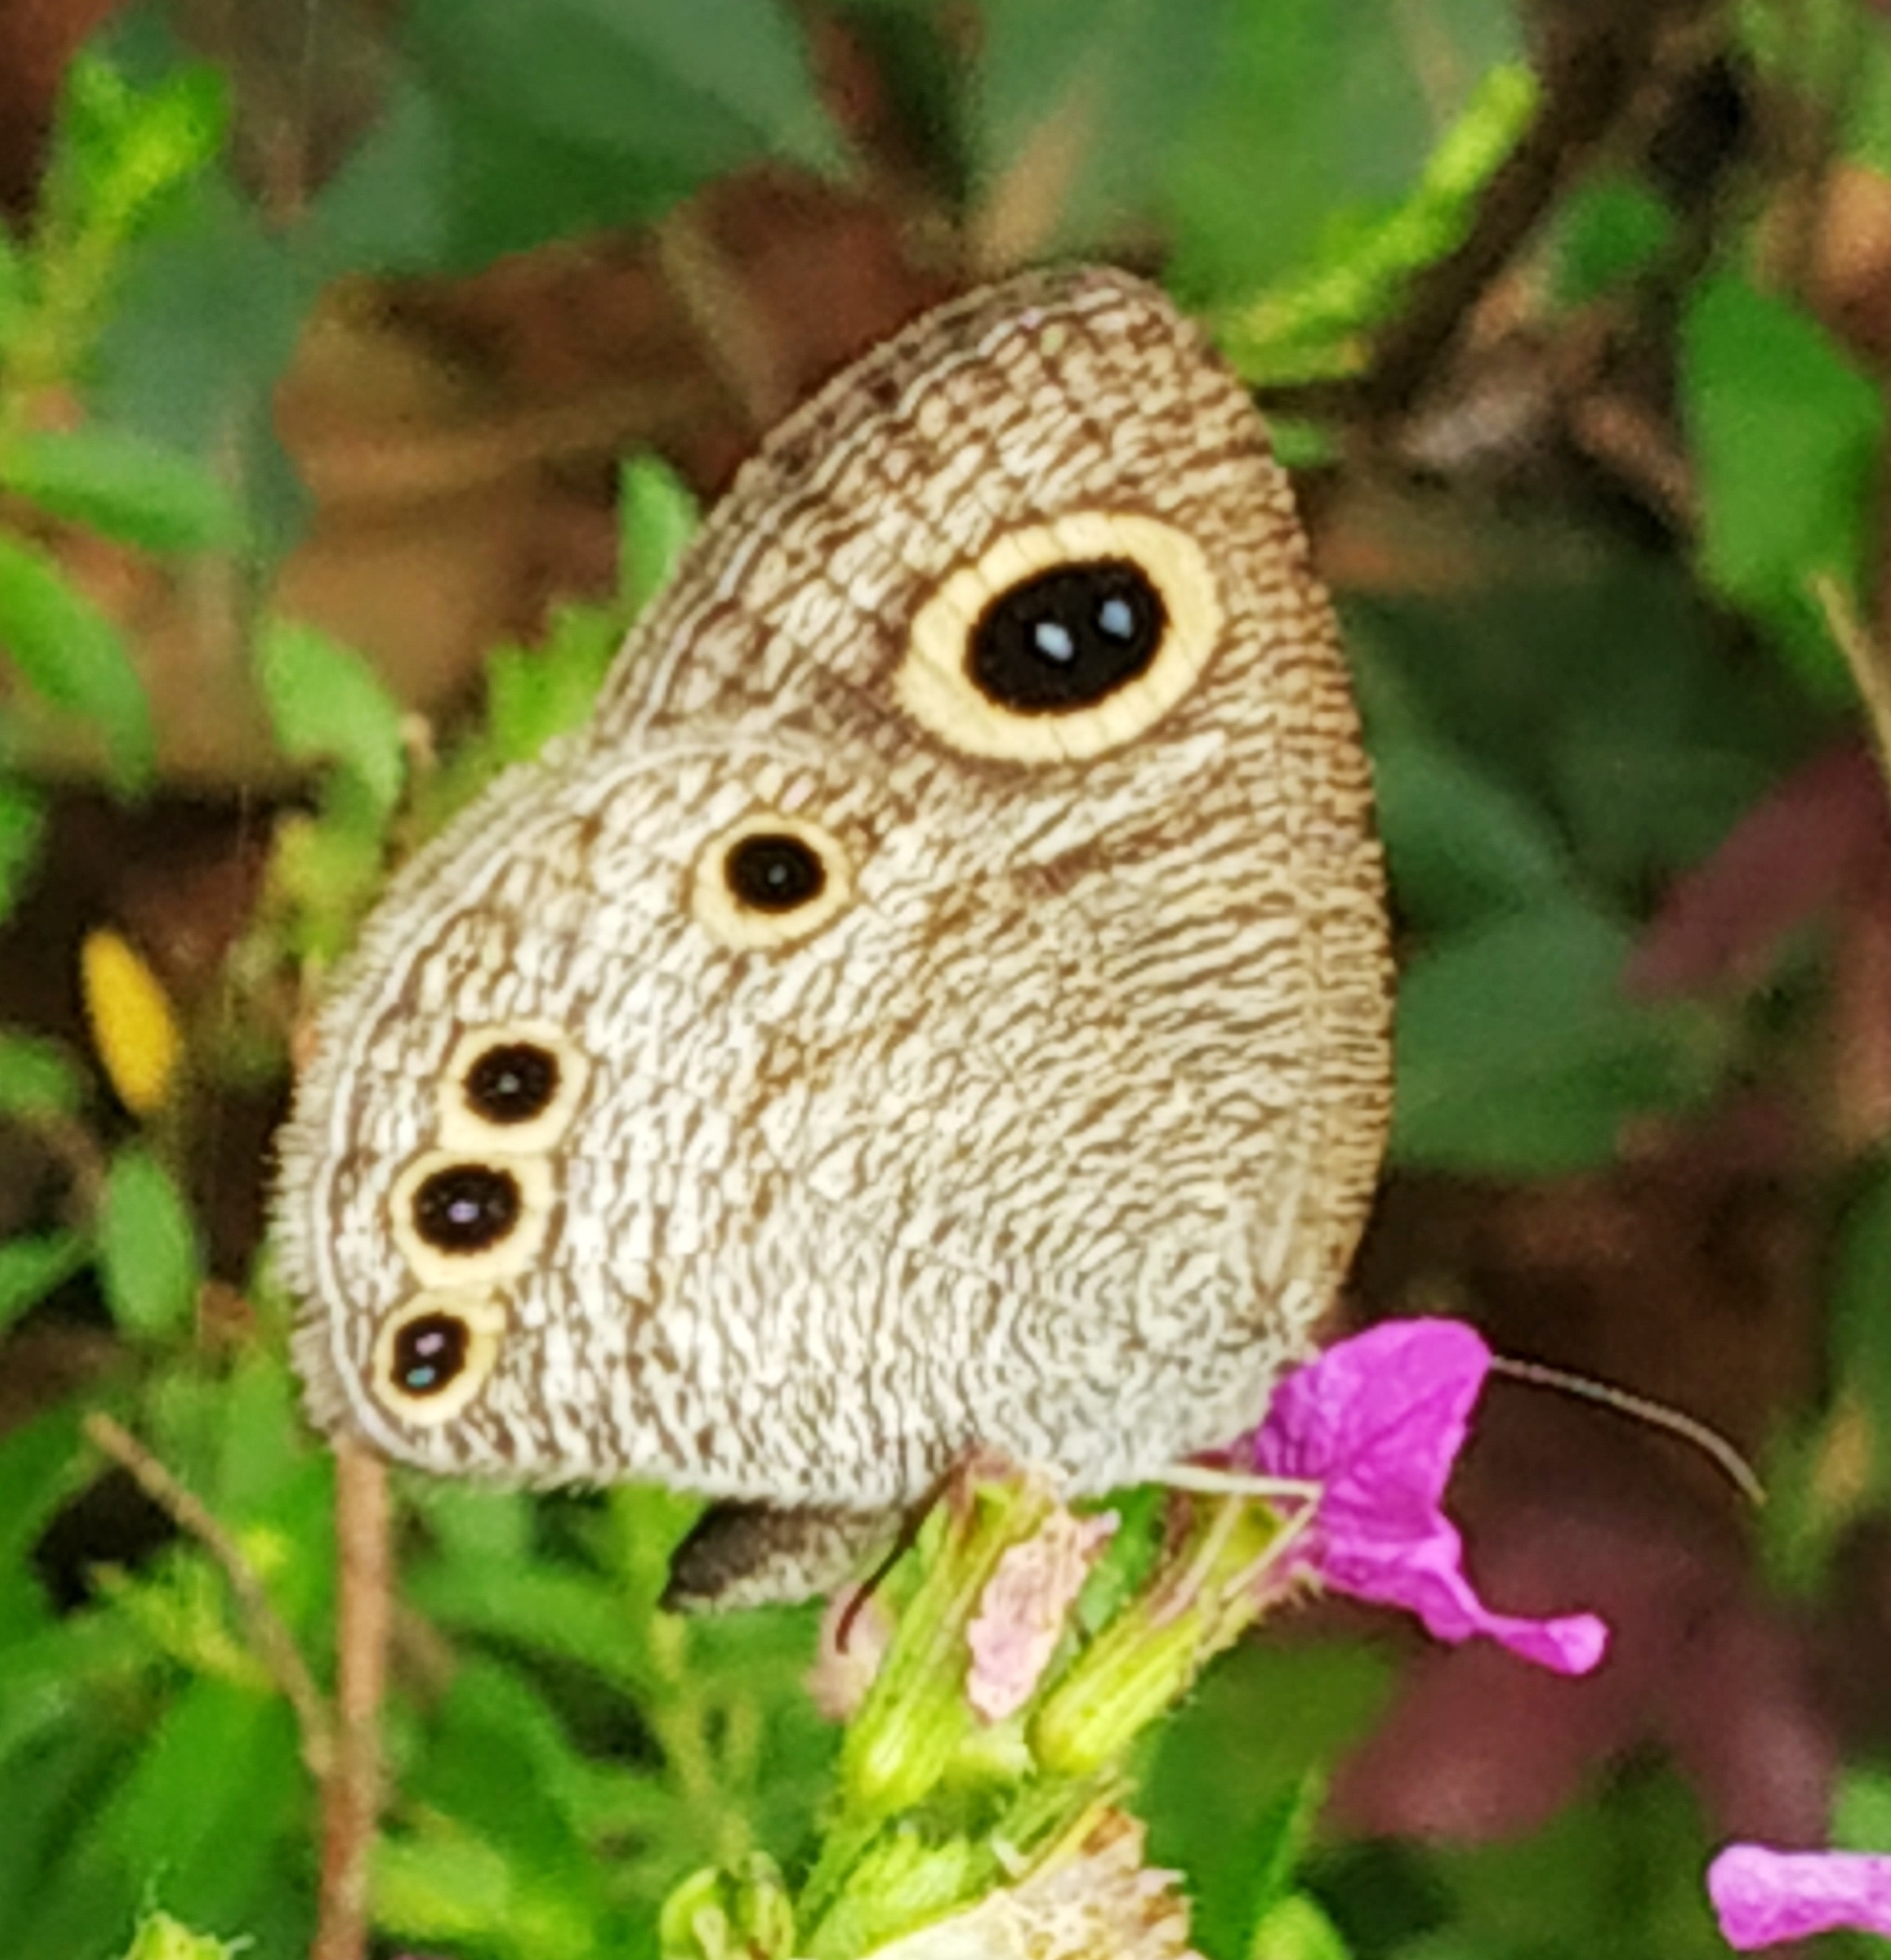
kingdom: Animalia
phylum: Arthropoda
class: Insecta
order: Lepidoptera
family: Nymphalidae
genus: Ypthima
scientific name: Ypthima huebneri
